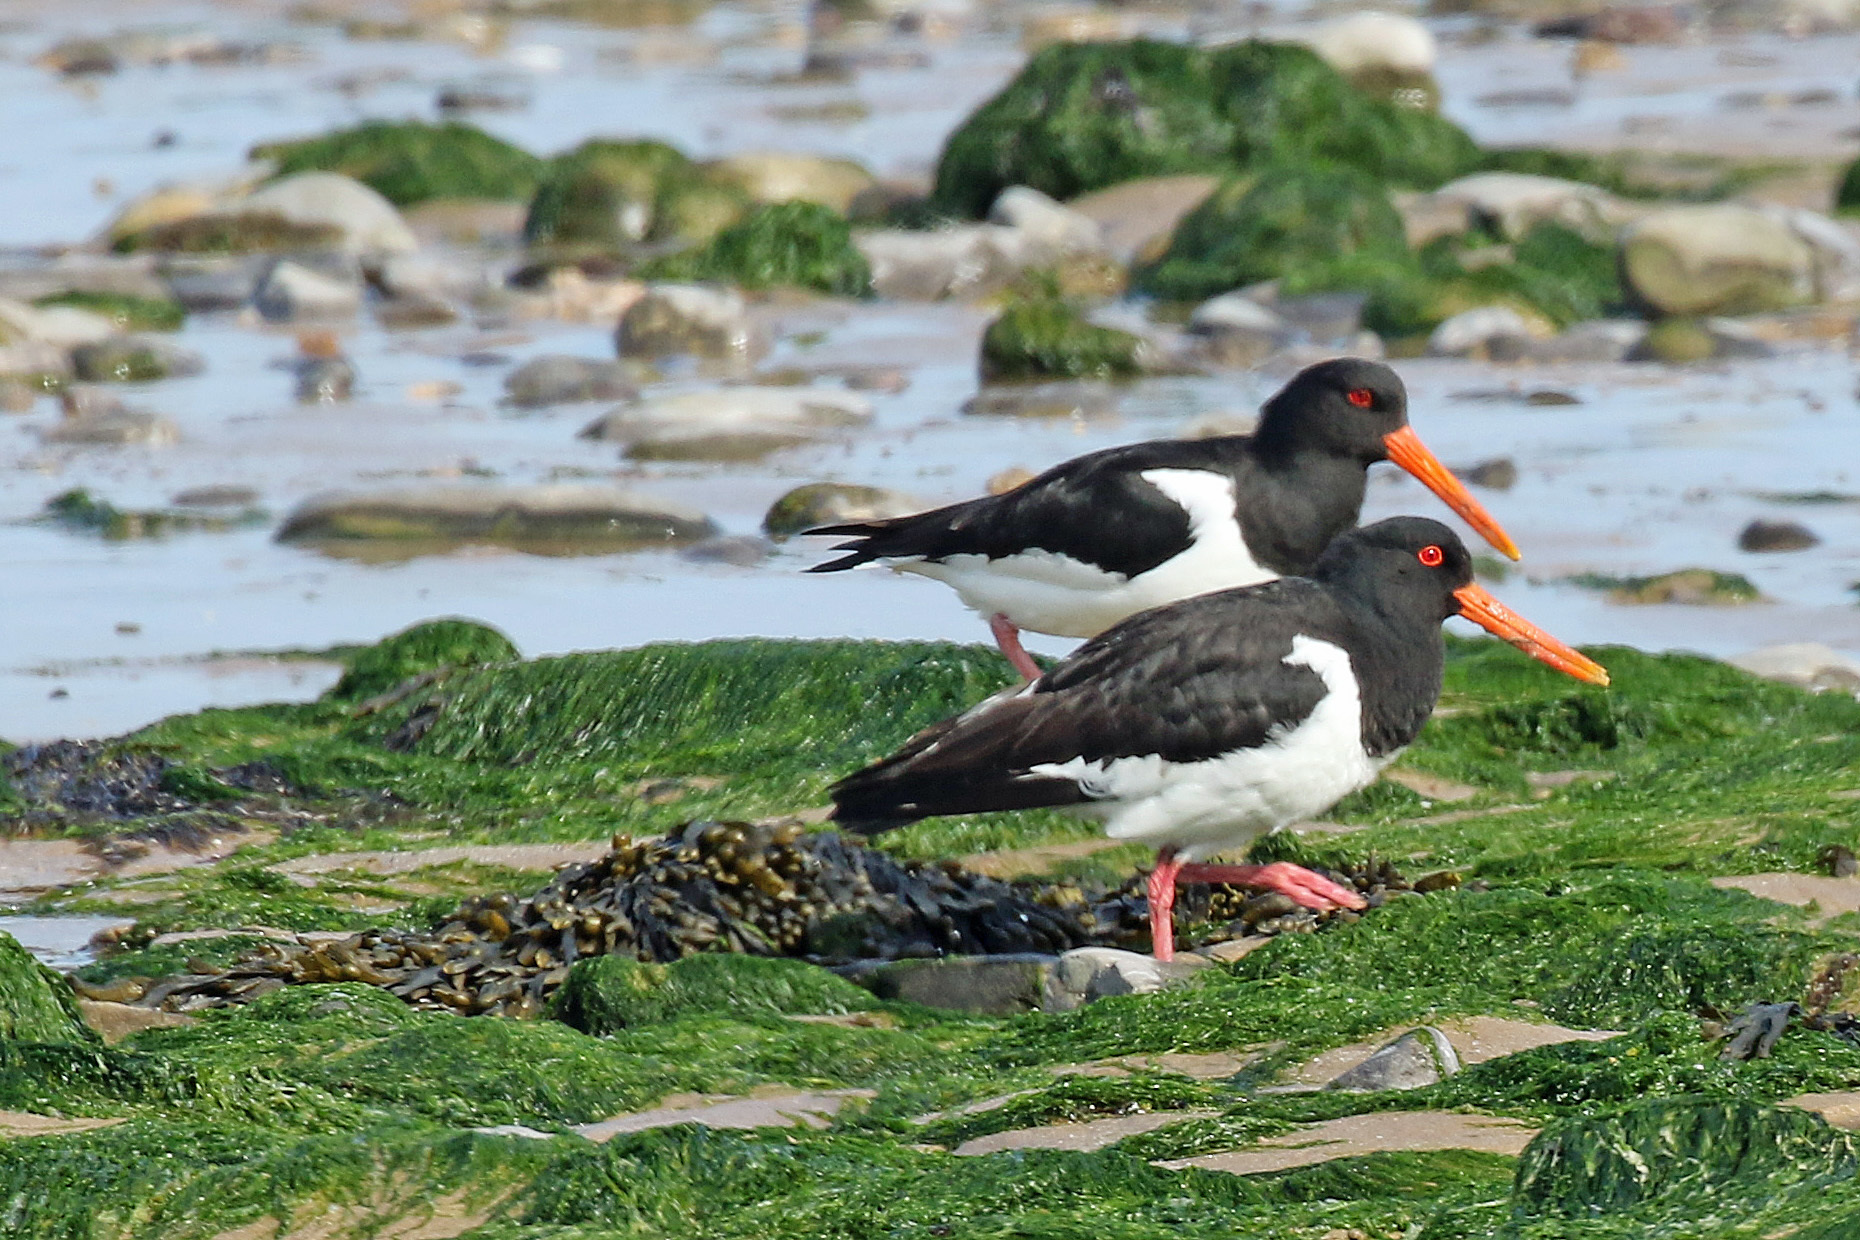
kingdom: Animalia
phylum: Chordata
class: Aves
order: Charadriiformes
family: Haematopodidae
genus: Haematopus
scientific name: Haematopus ostralegus
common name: Eurasian oystercatcher
